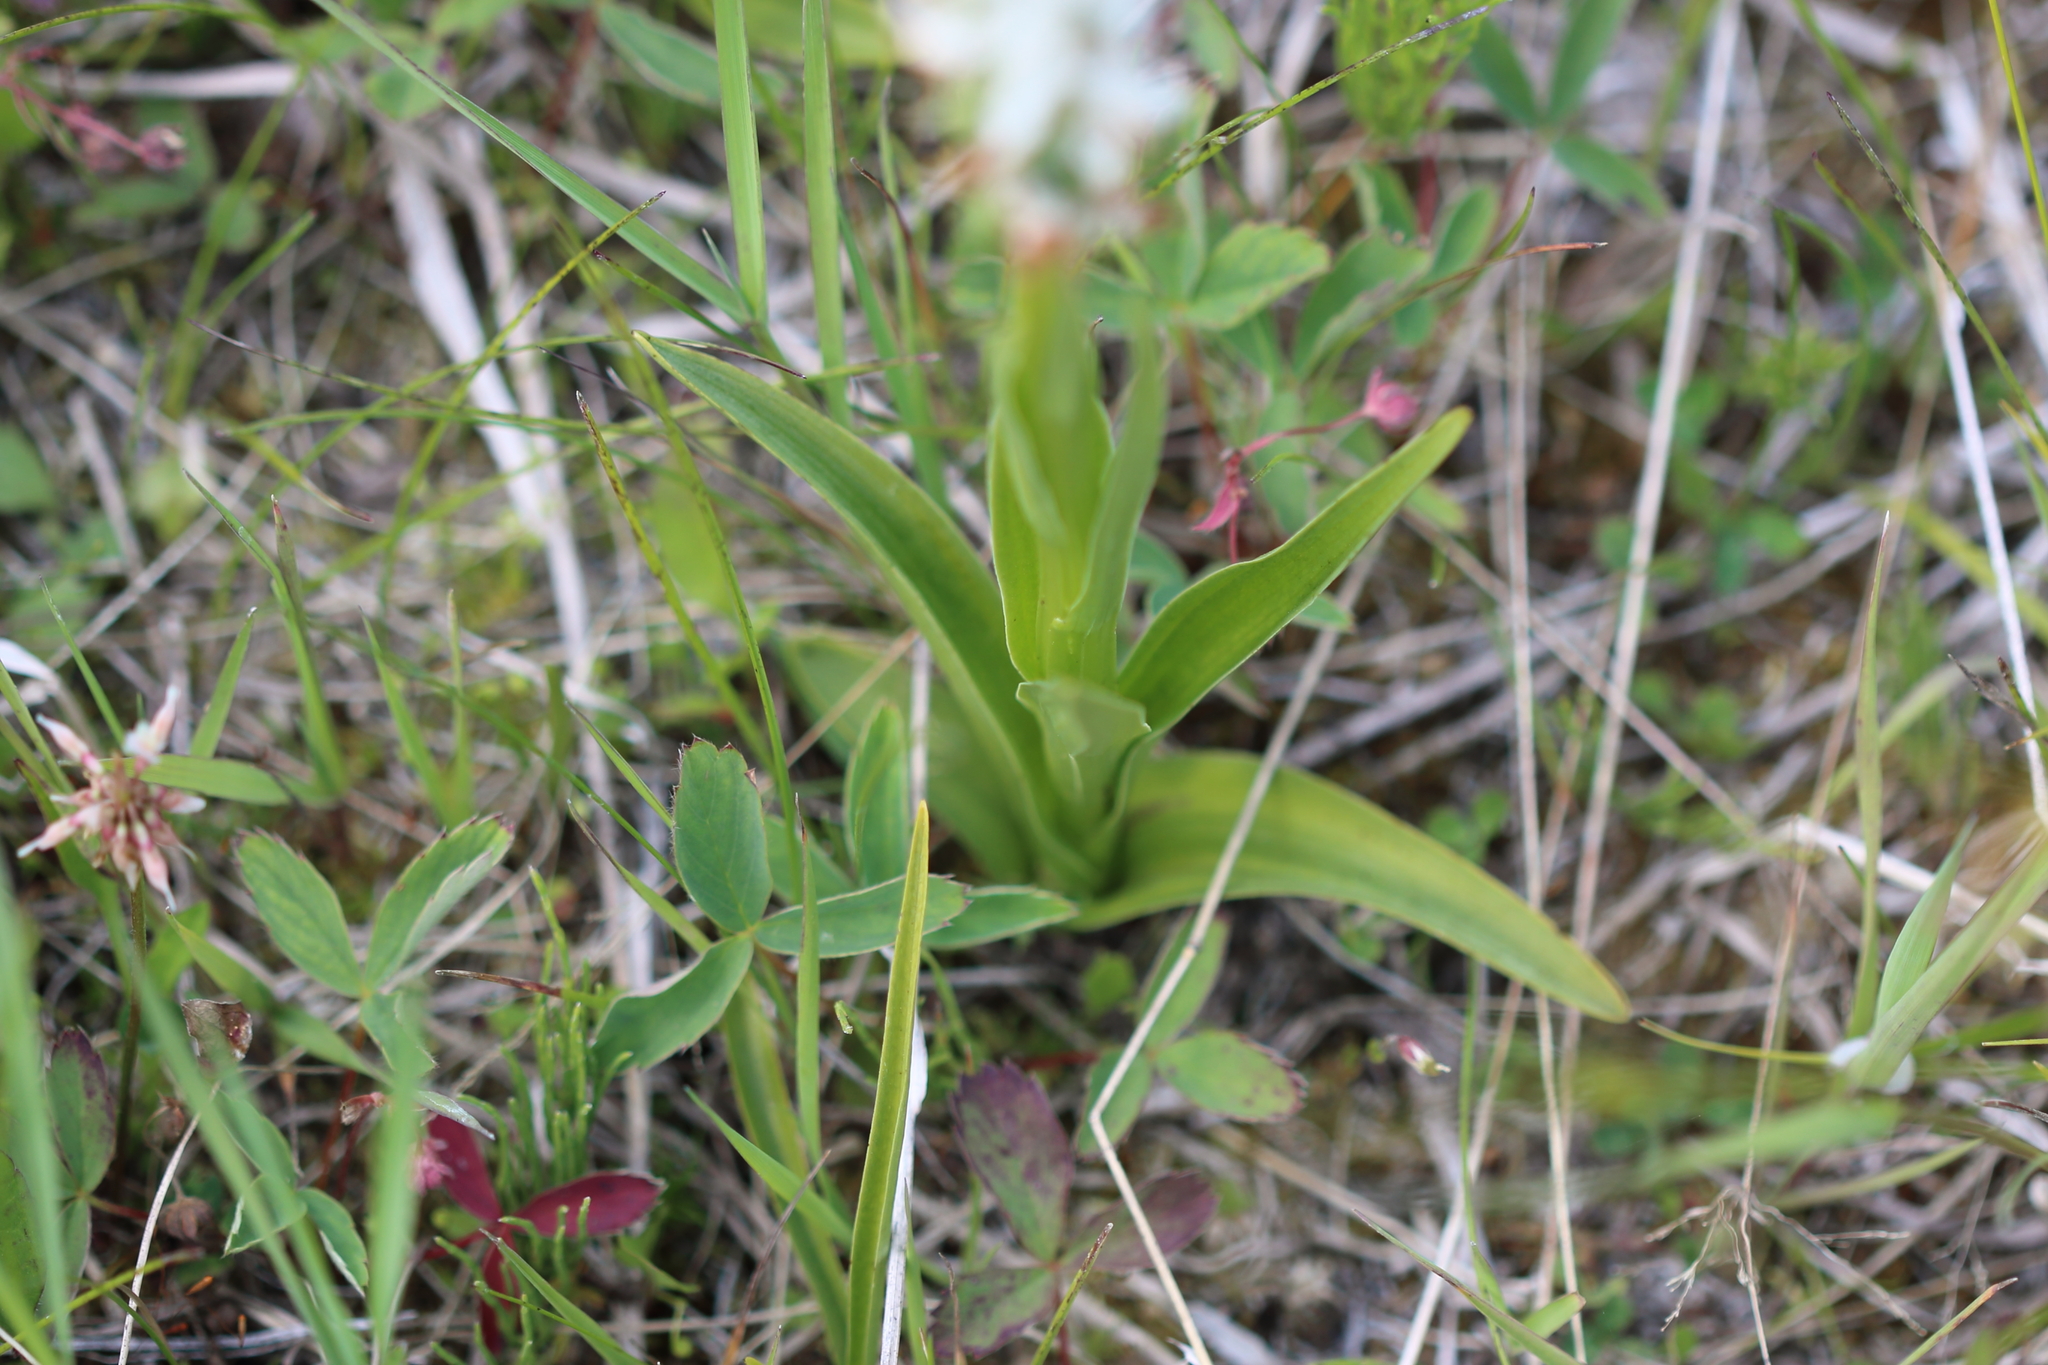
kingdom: Plantae
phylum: Tracheophyta
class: Liliopsida
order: Asparagales
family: Orchidaceae
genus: Platanthera
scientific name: Platanthera dilatata
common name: Bog candles
